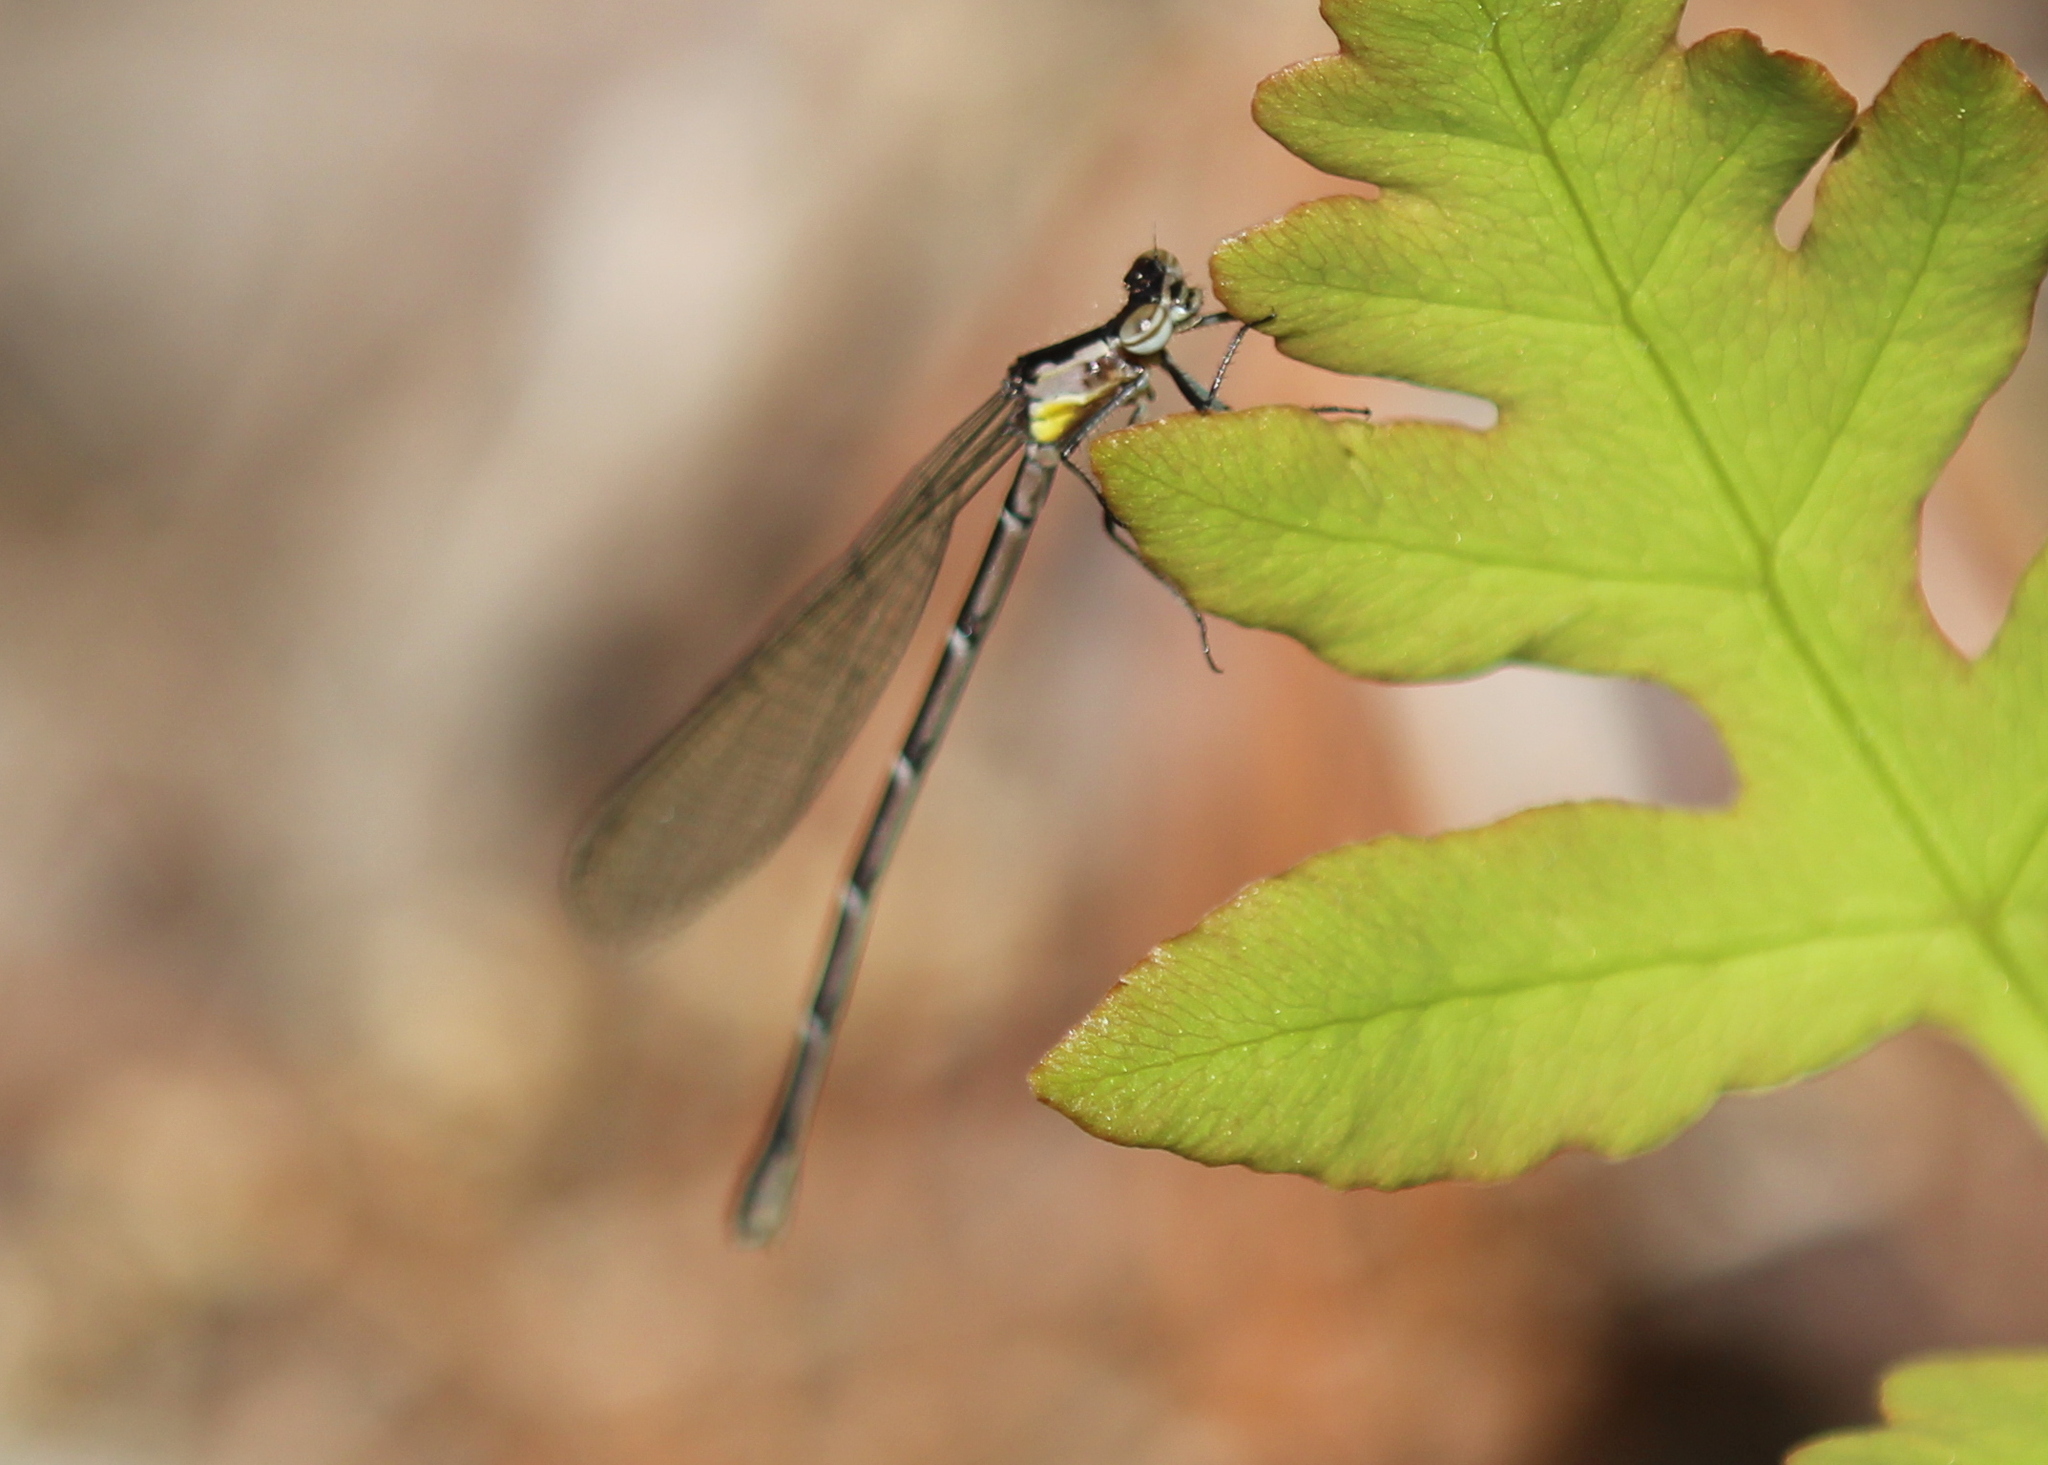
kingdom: Animalia
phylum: Arthropoda
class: Insecta
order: Odonata
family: Coenagrionidae
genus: Chromagrion
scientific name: Chromagrion conditum
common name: Aurora damsel
